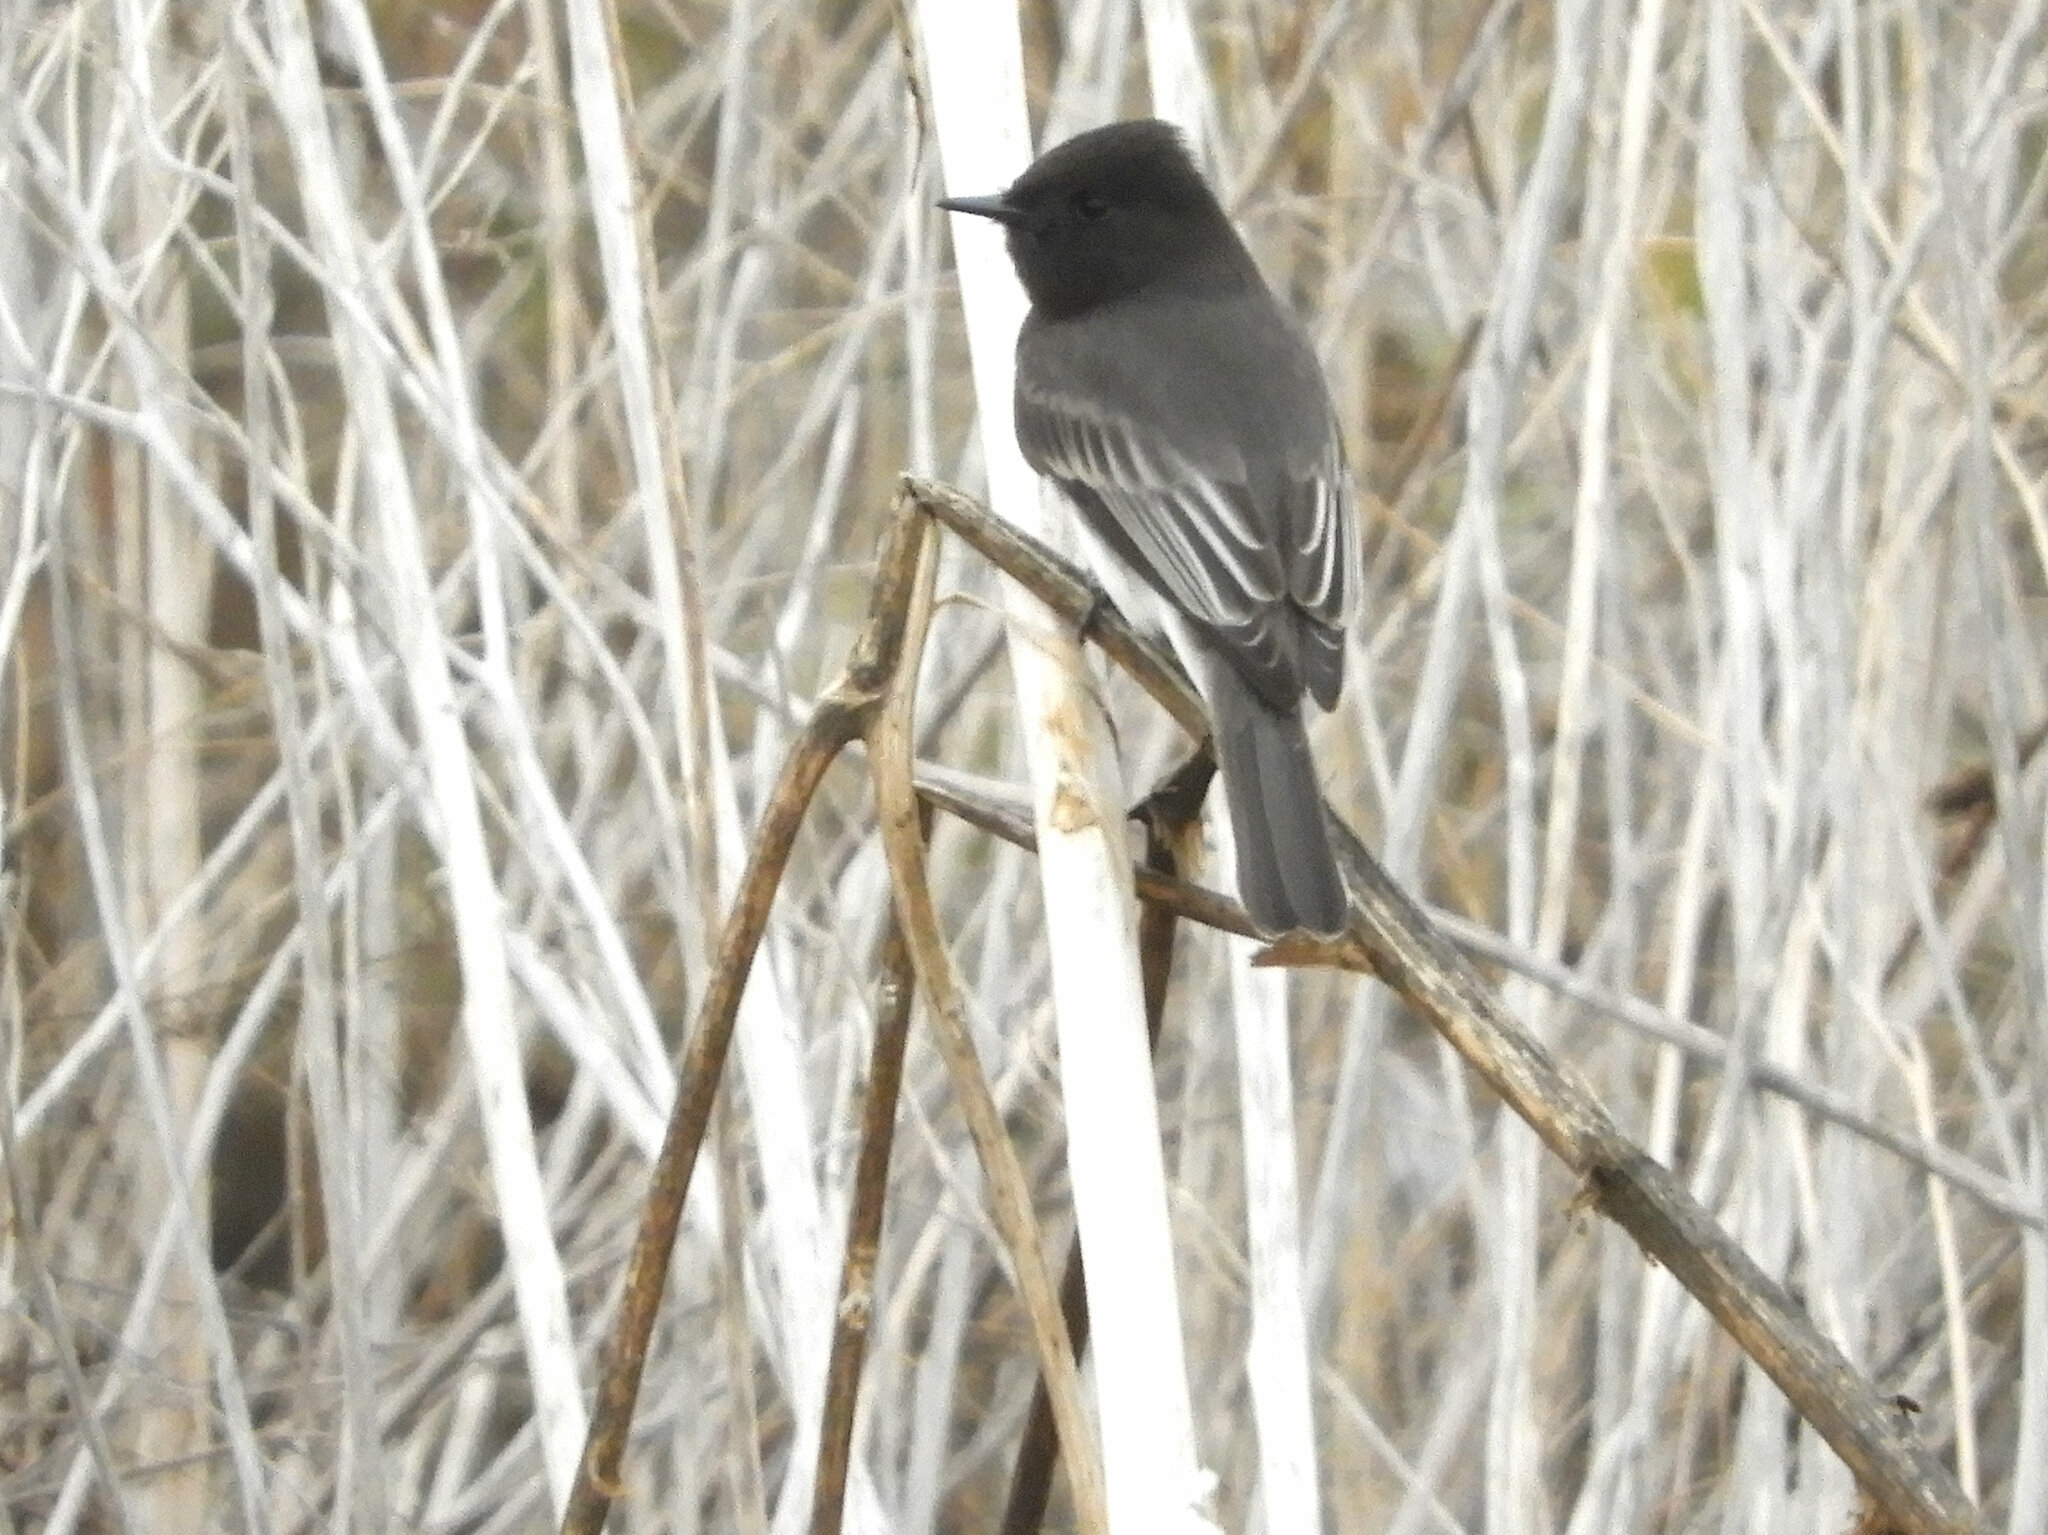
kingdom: Animalia
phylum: Chordata
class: Aves
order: Passeriformes
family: Tyrannidae
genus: Sayornis
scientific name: Sayornis nigricans
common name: Black phoebe
